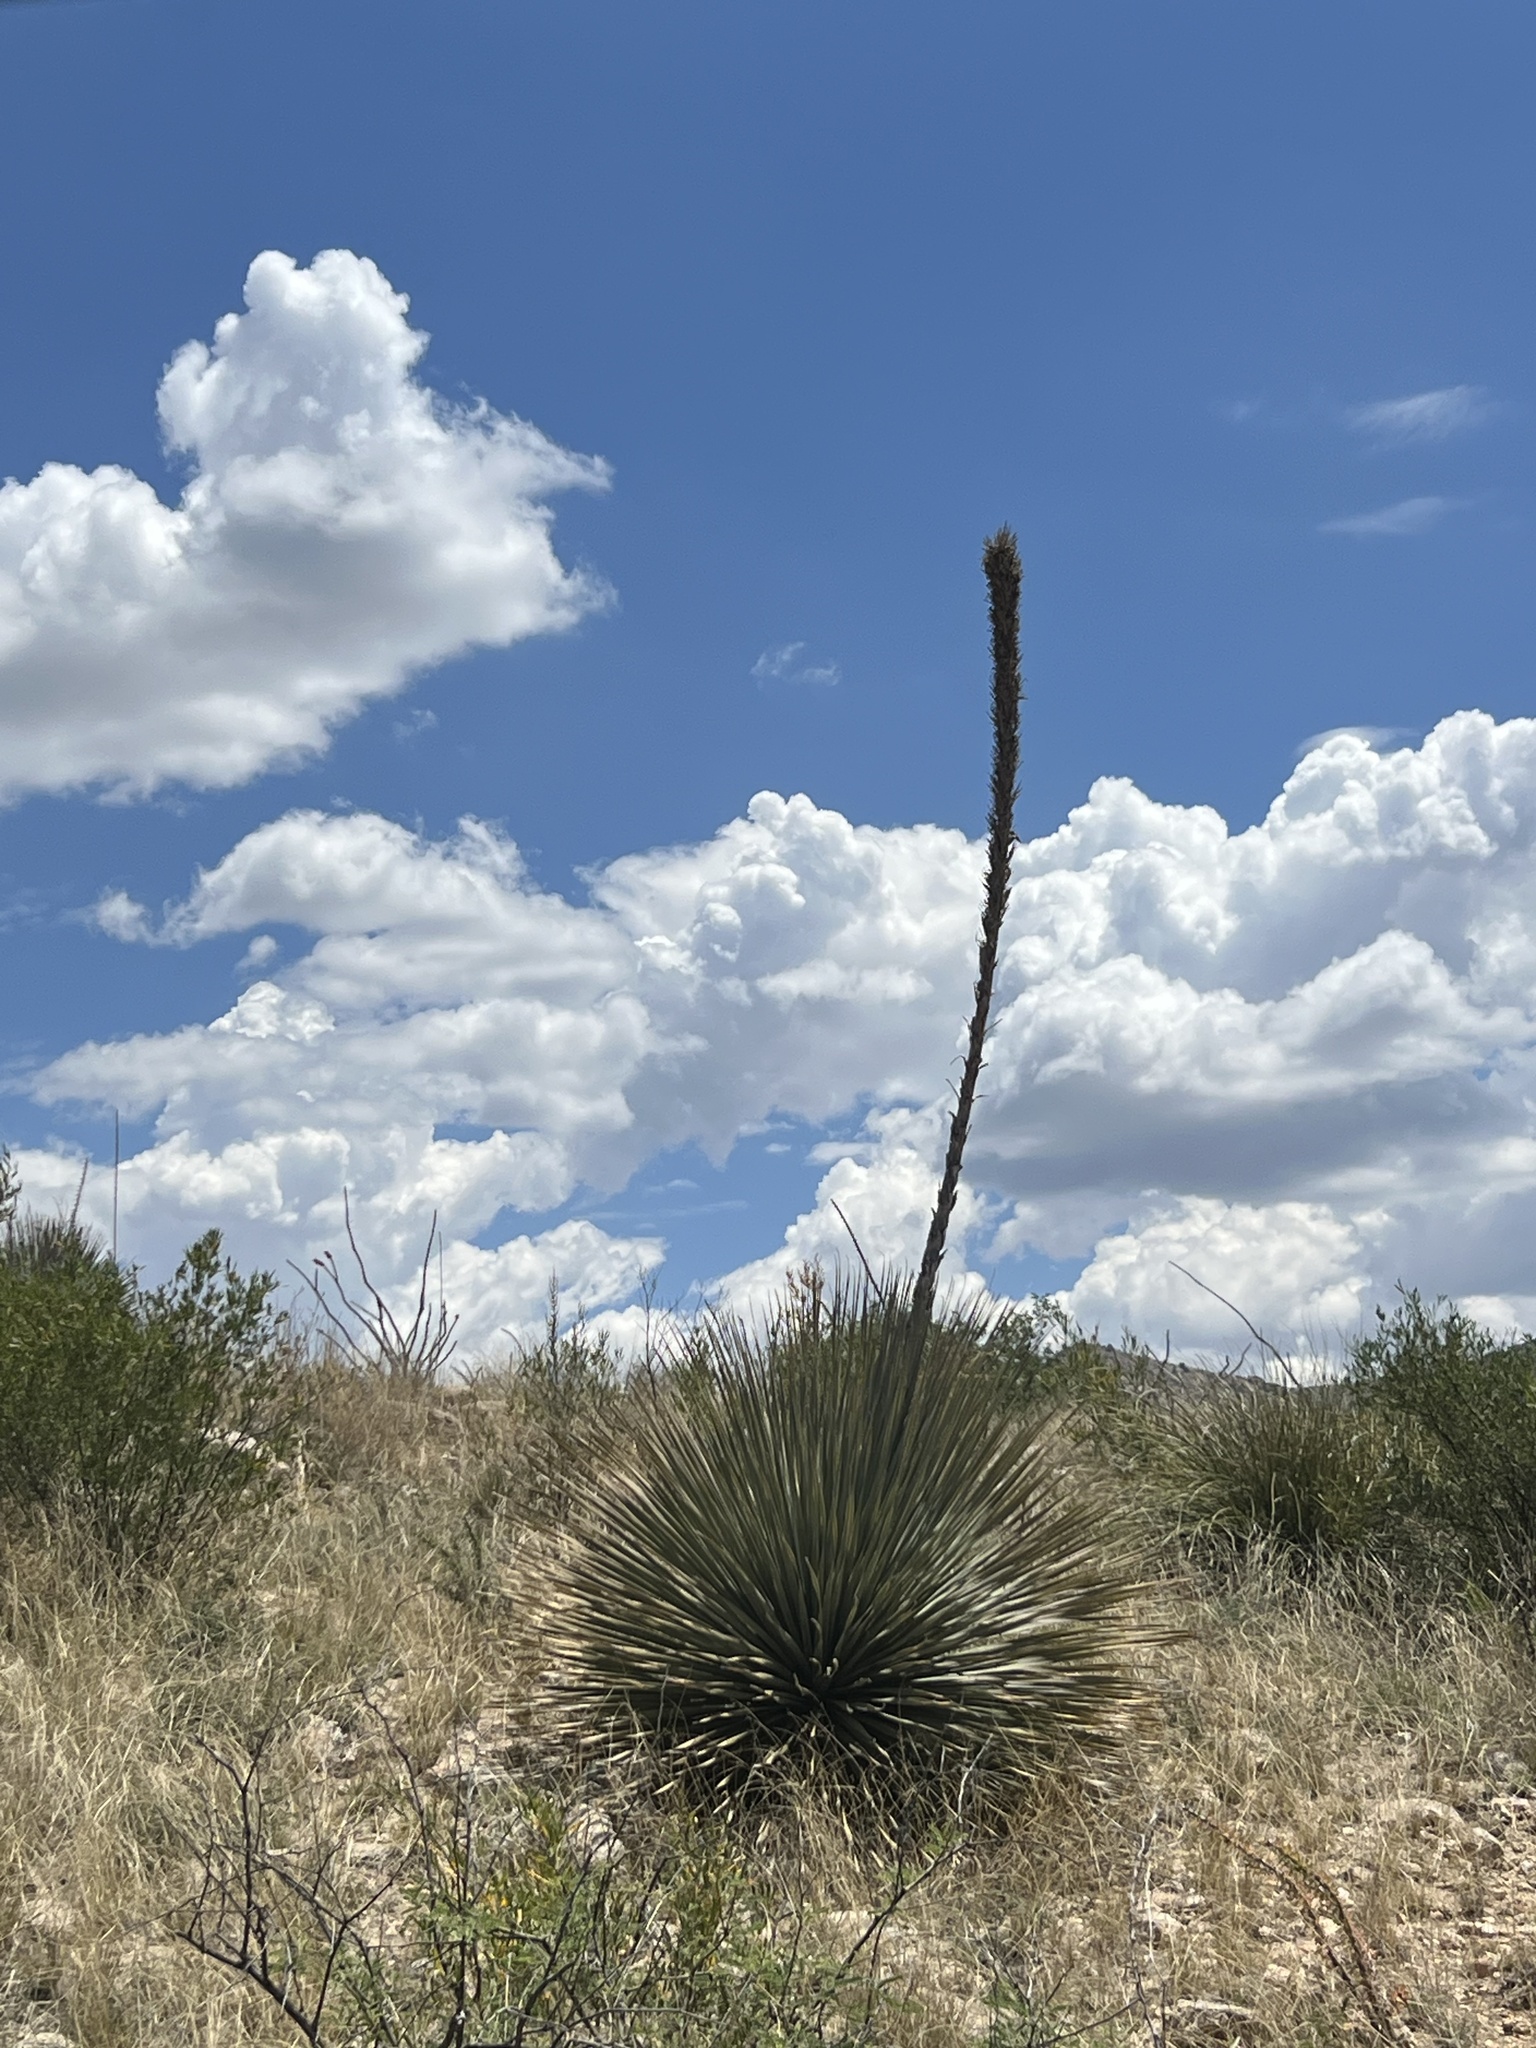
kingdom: Plantae
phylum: Tracheophyta
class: Liliopsida
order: Asparagales
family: Asparagaceae
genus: Dasylirion
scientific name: Dasylirion wheeleri
